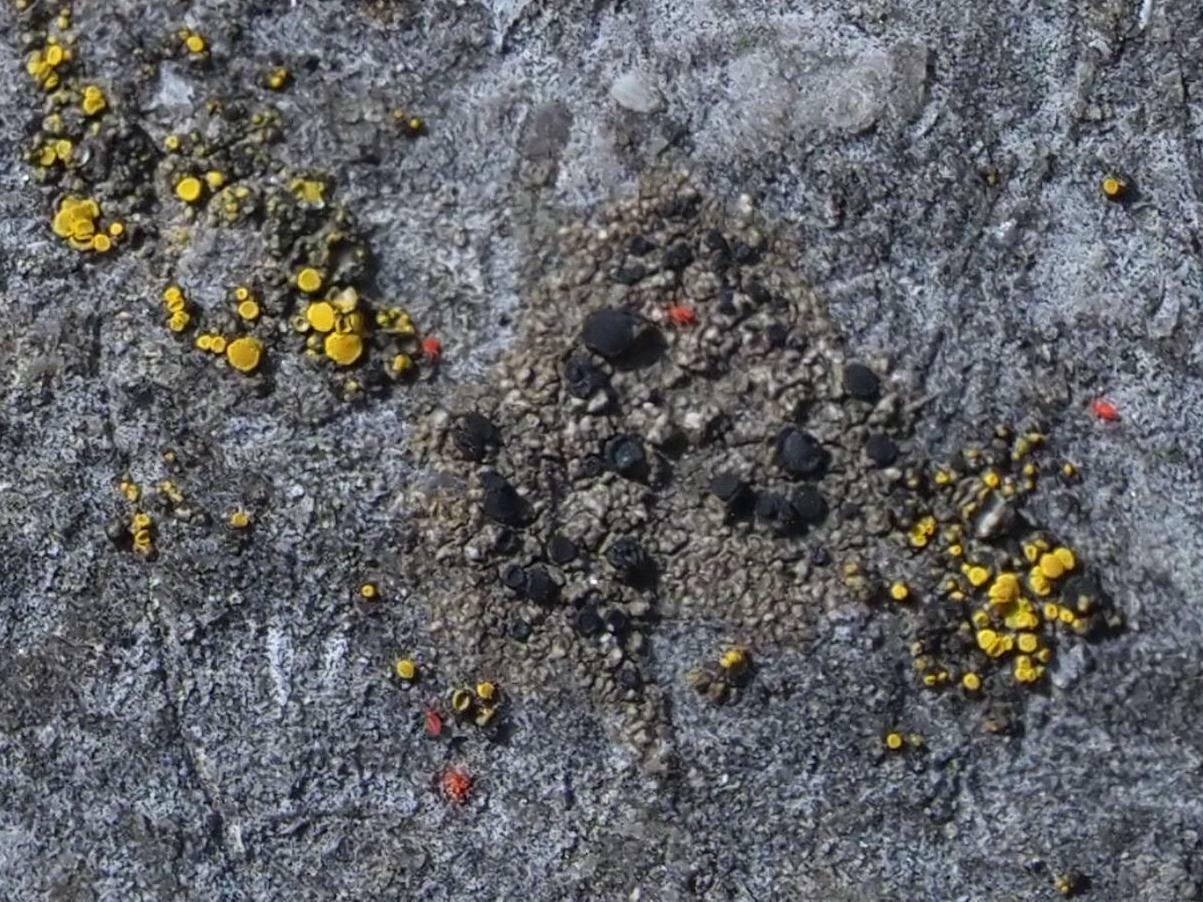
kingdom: Fungi
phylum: Ascomycota
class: Lecanoromycetes
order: Lecanorales
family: Lecanoraceae
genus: Lecidella
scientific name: Lecidella stigmatea
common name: Limestone disc lichen
